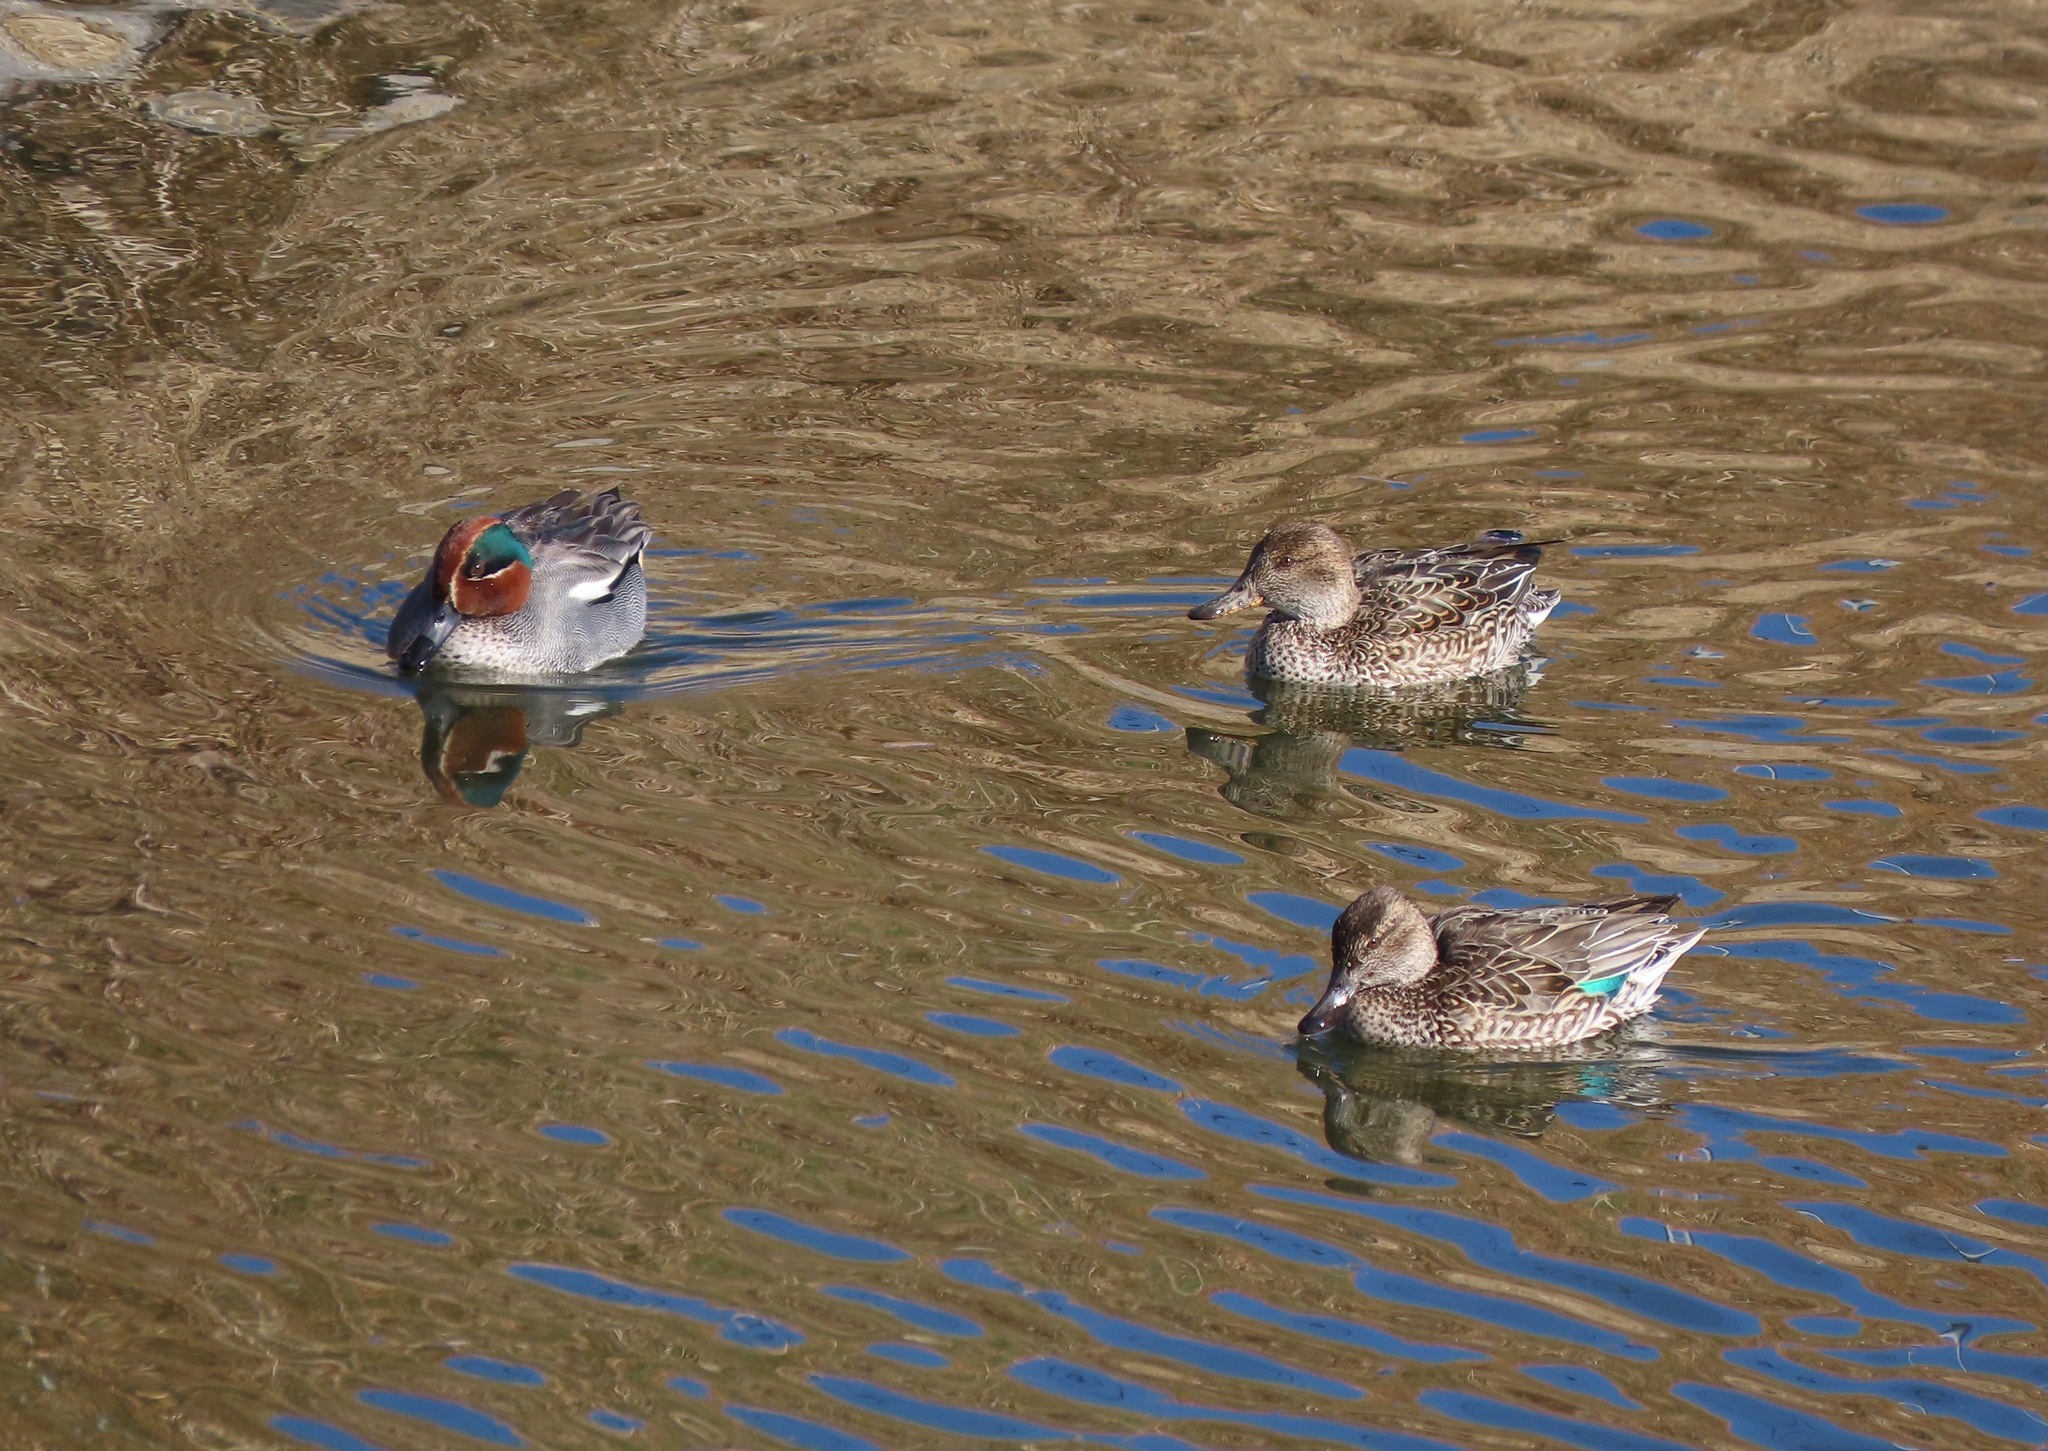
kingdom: Animalia
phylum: Chordata
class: Aves
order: Anseriformes
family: Anatidae
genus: Anas
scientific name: Anas crecca
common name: Eurasian teal
